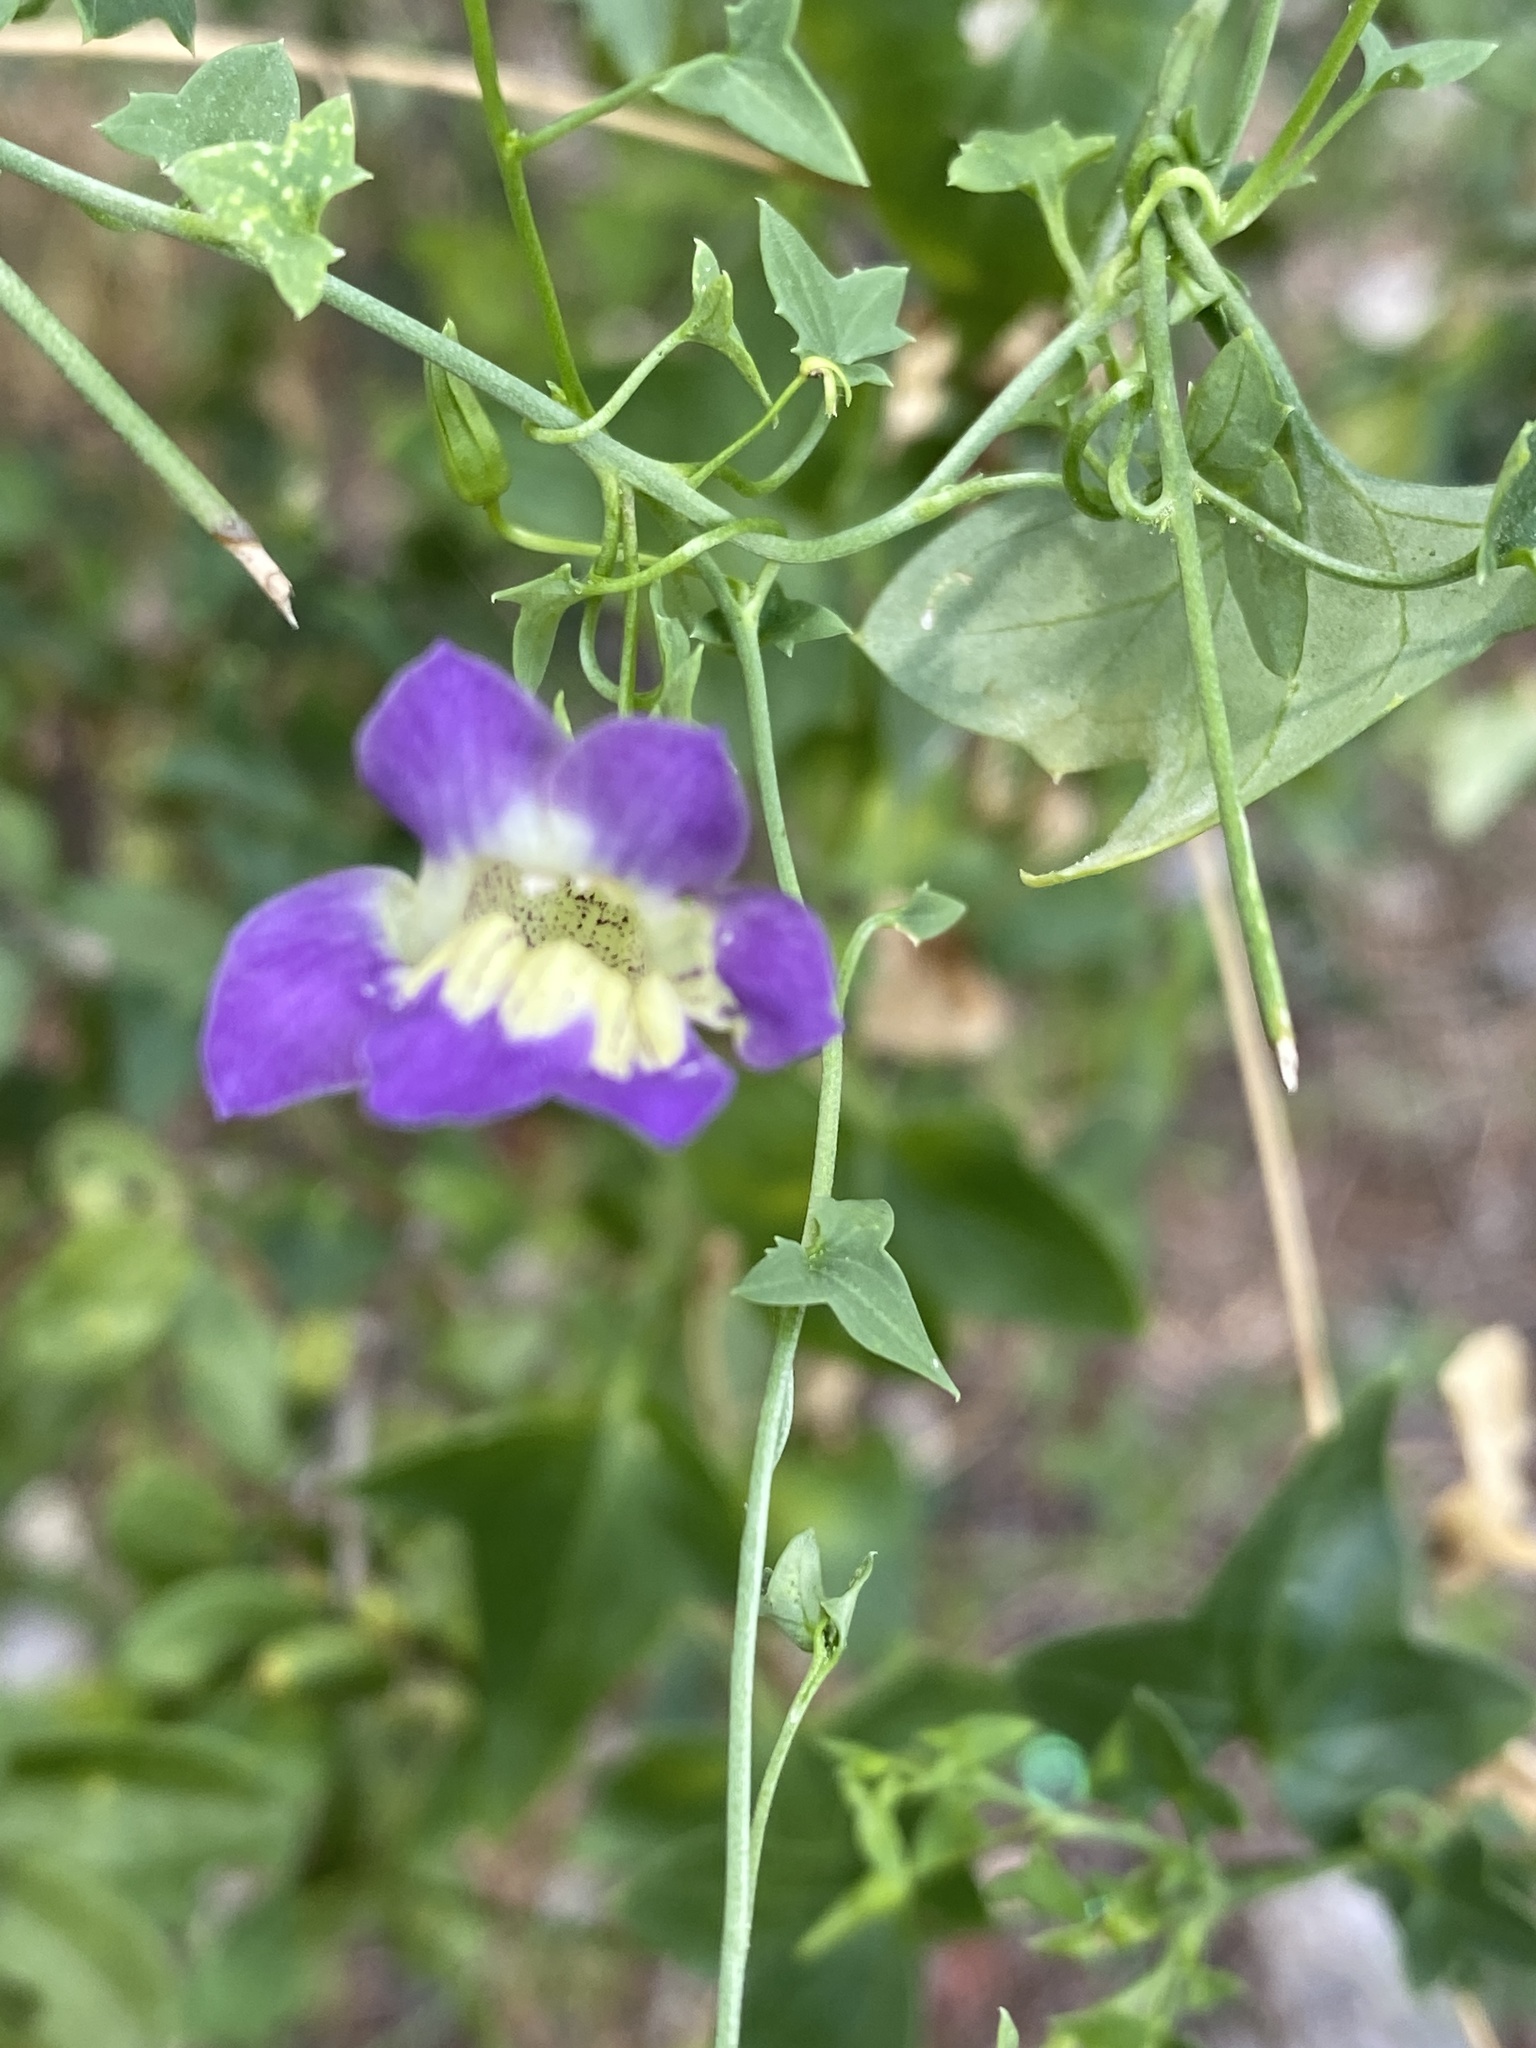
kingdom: Plantae
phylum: Tracheophyta
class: Magnoliopsida
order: Lamiales
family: Plantaginaceae
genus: Maurandella
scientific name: Maurandella antirrhiniflora
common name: Violet twining-snapdragon
